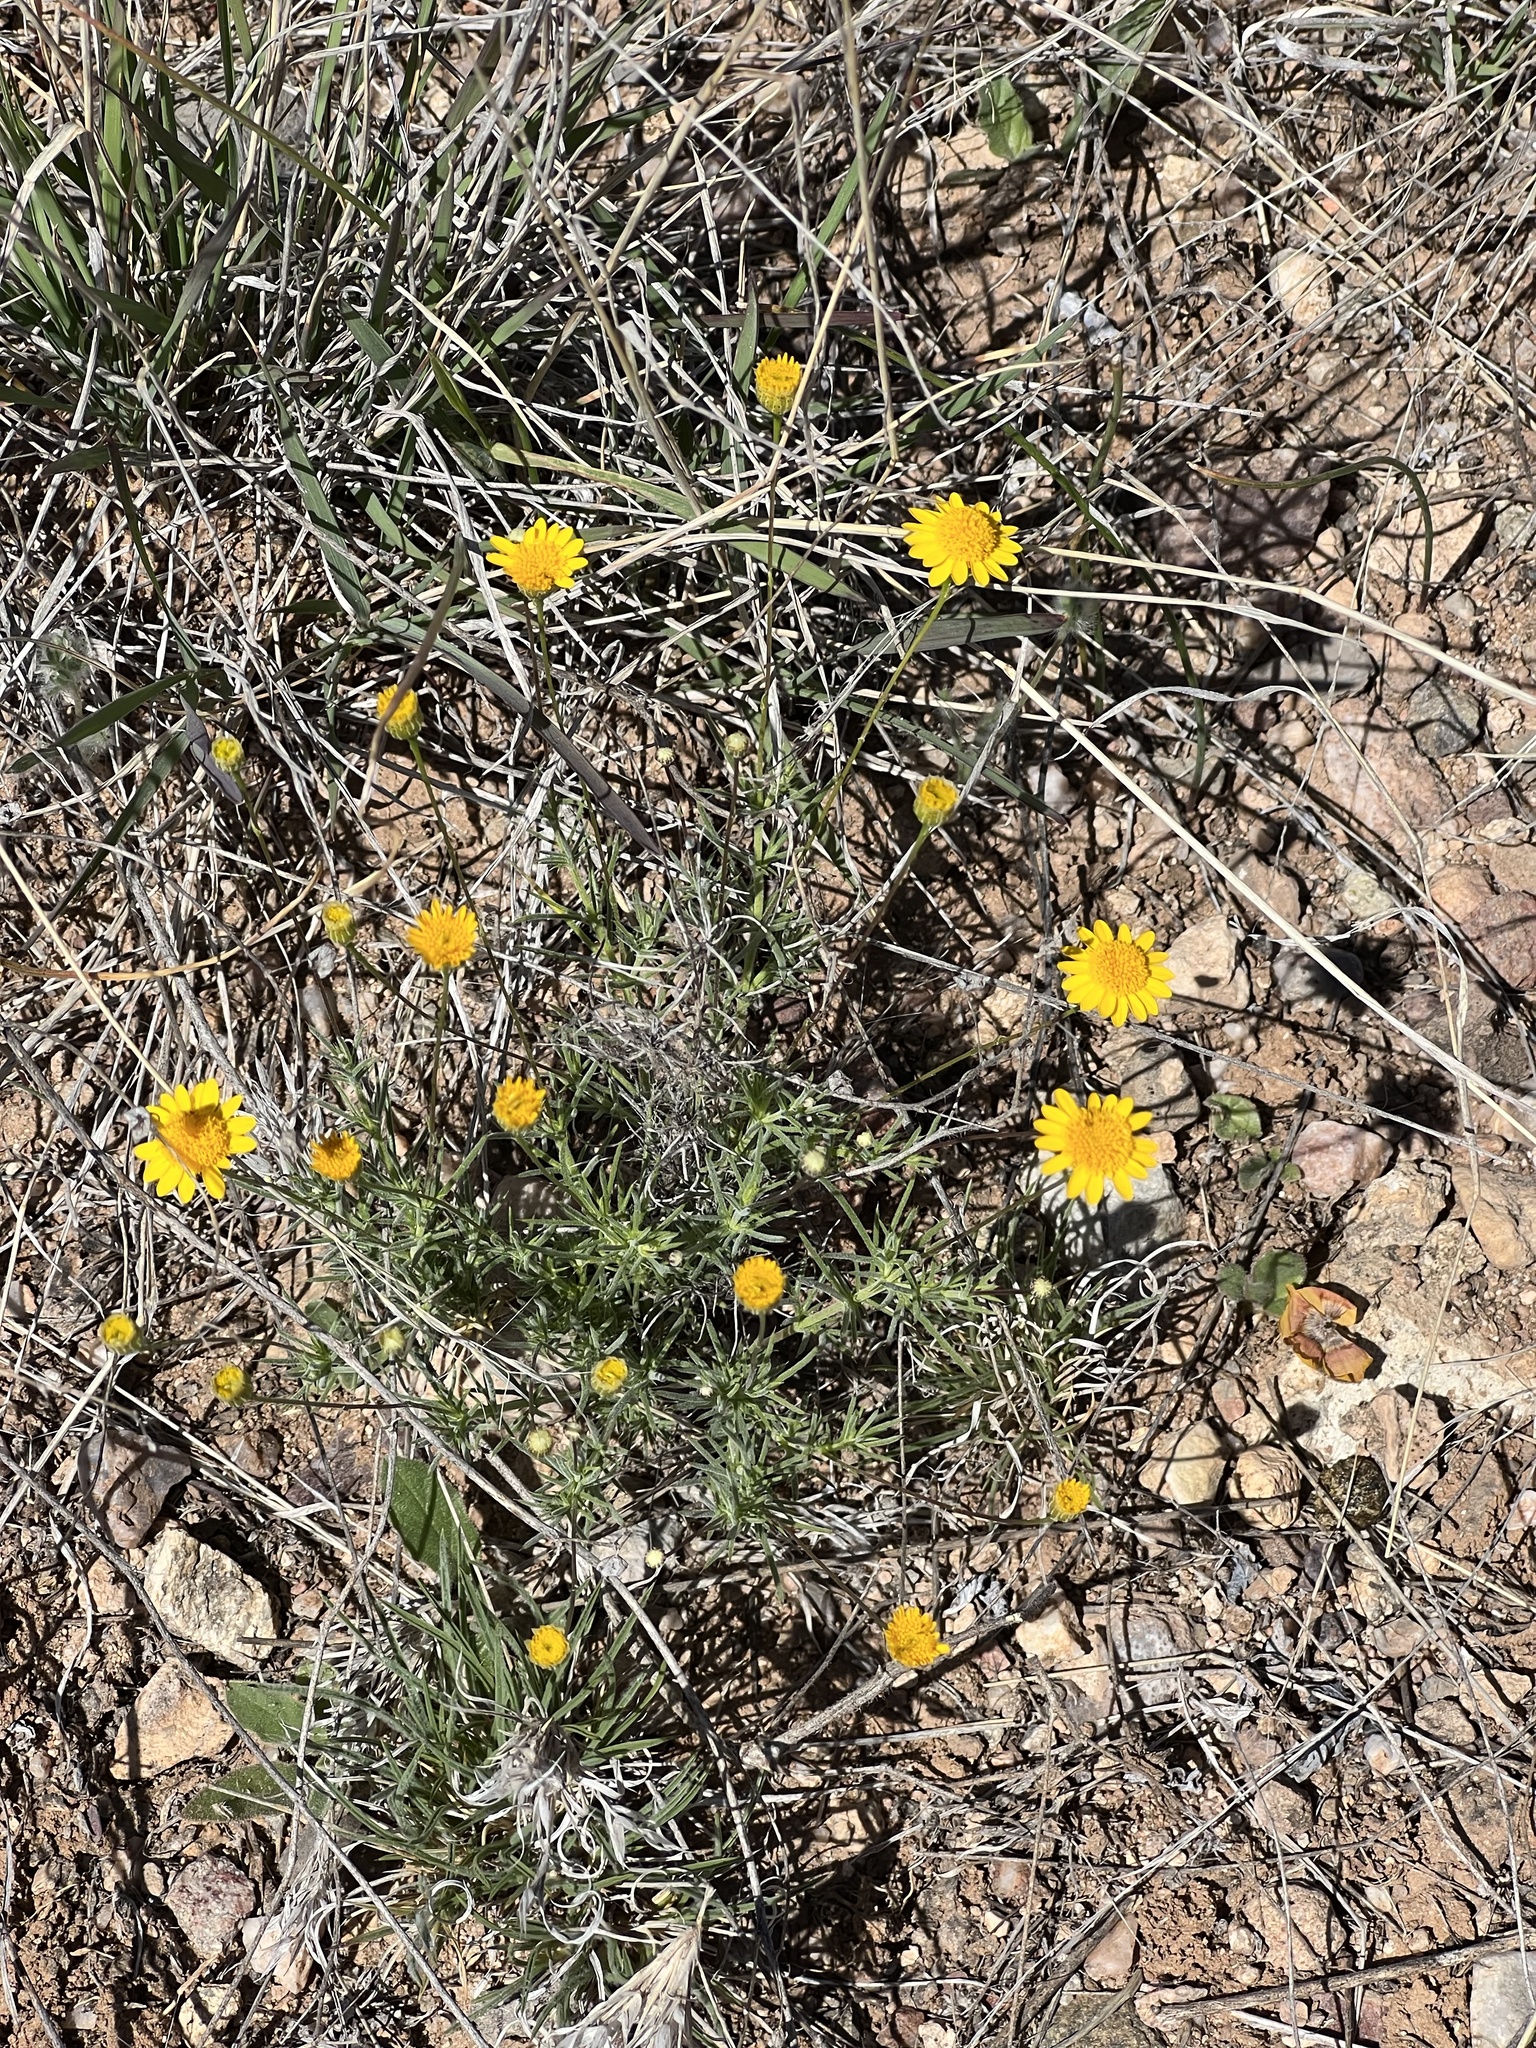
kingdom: Plantae
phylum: Tracheophyta
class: Magnoliopsida
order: Asterales
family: Asteraceae
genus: Thymophylla
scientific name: Thymophylla pentachaeta
